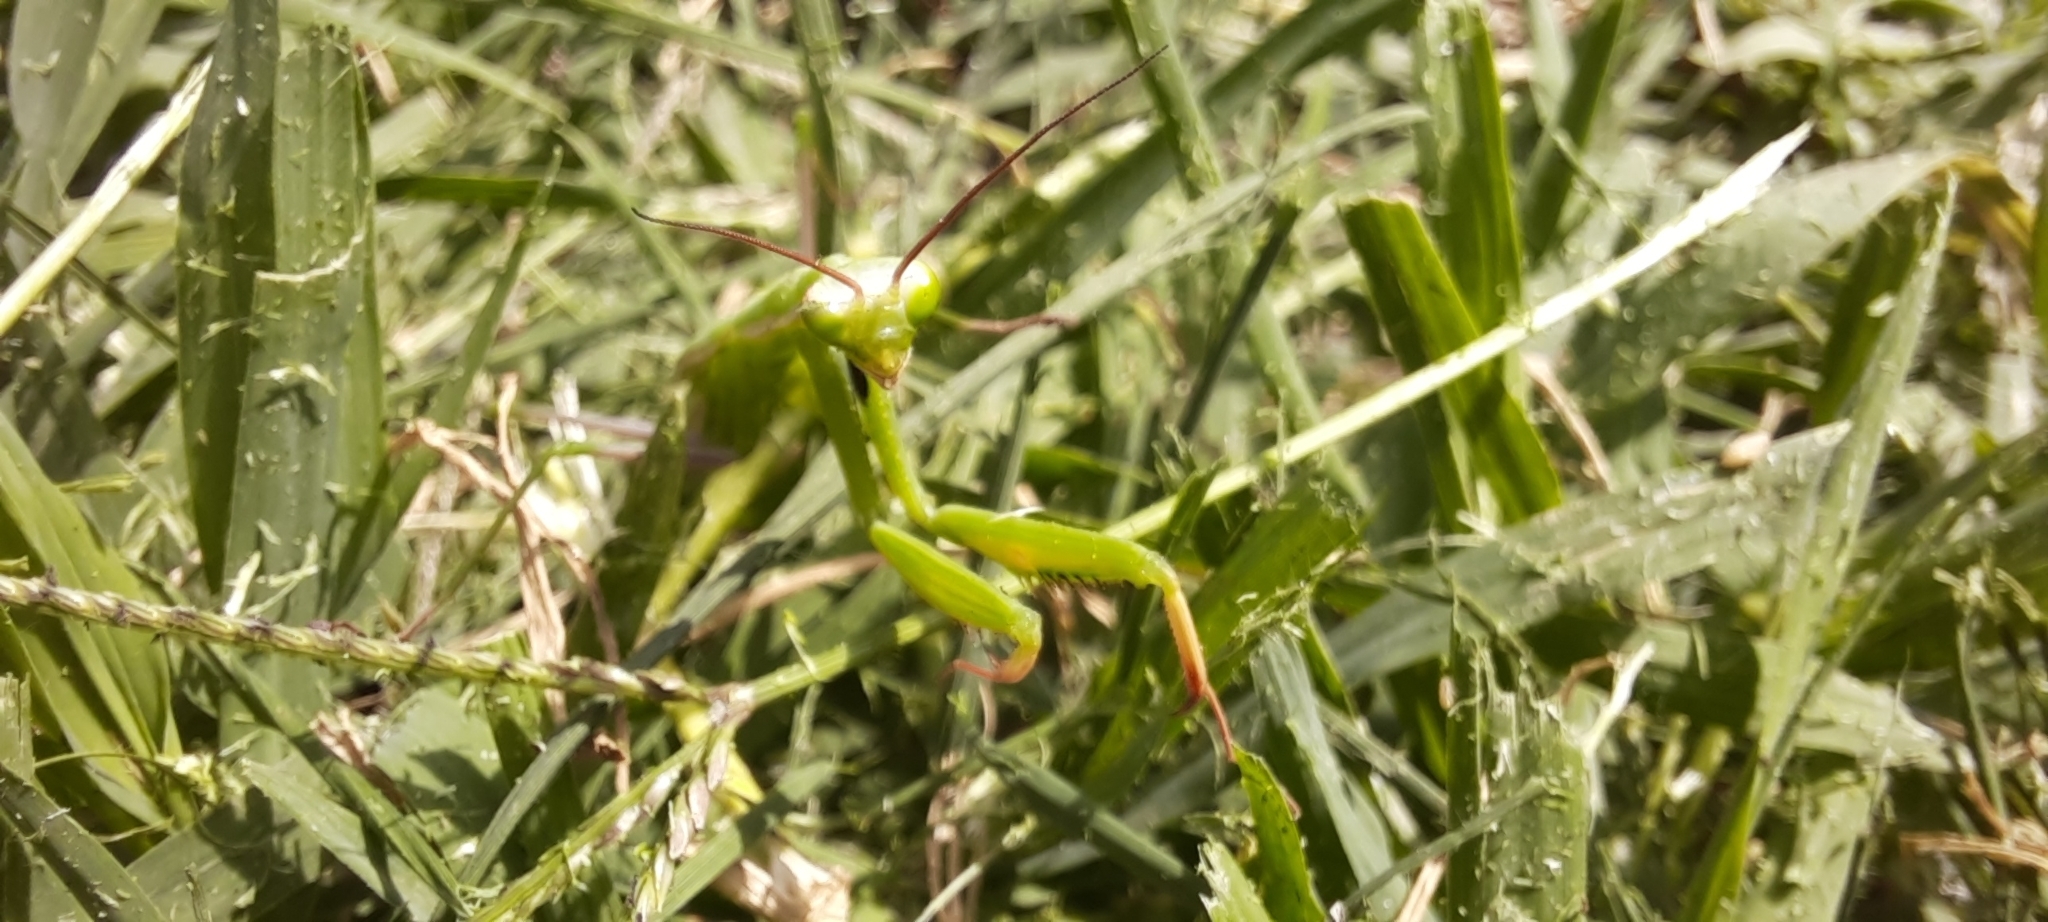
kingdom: Animalia
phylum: Arthropoda
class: Insecta
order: Mantodea
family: Mantidae
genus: Mantis
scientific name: Mantis religiosa
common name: Praying mantis
